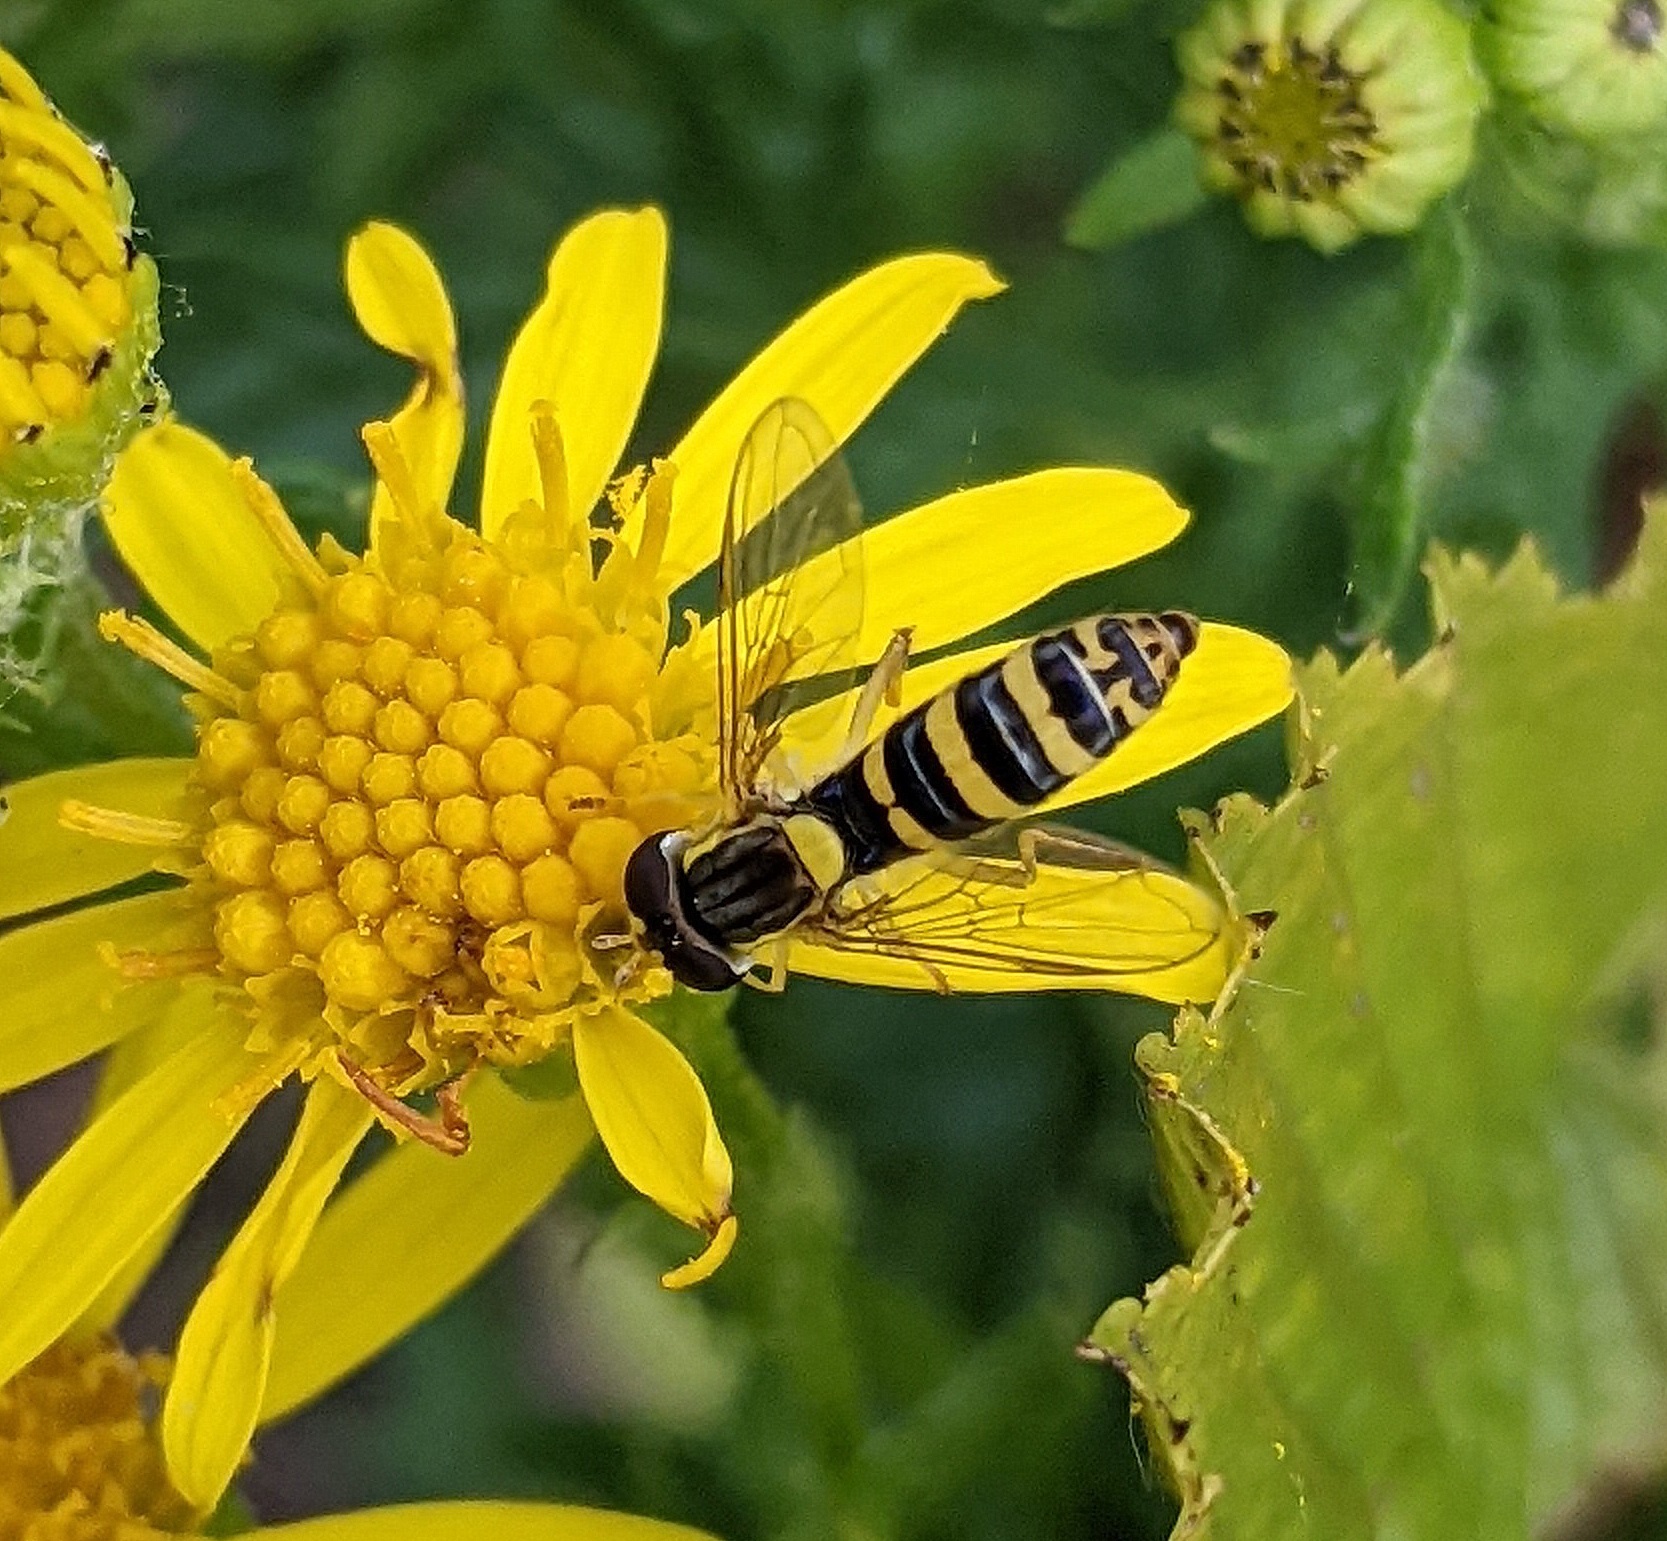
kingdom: Animalia
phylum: Arthropoda
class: Insecta
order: Diptera
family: Syrphidae
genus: Sphaerophoria
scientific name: Sphaerophoria
